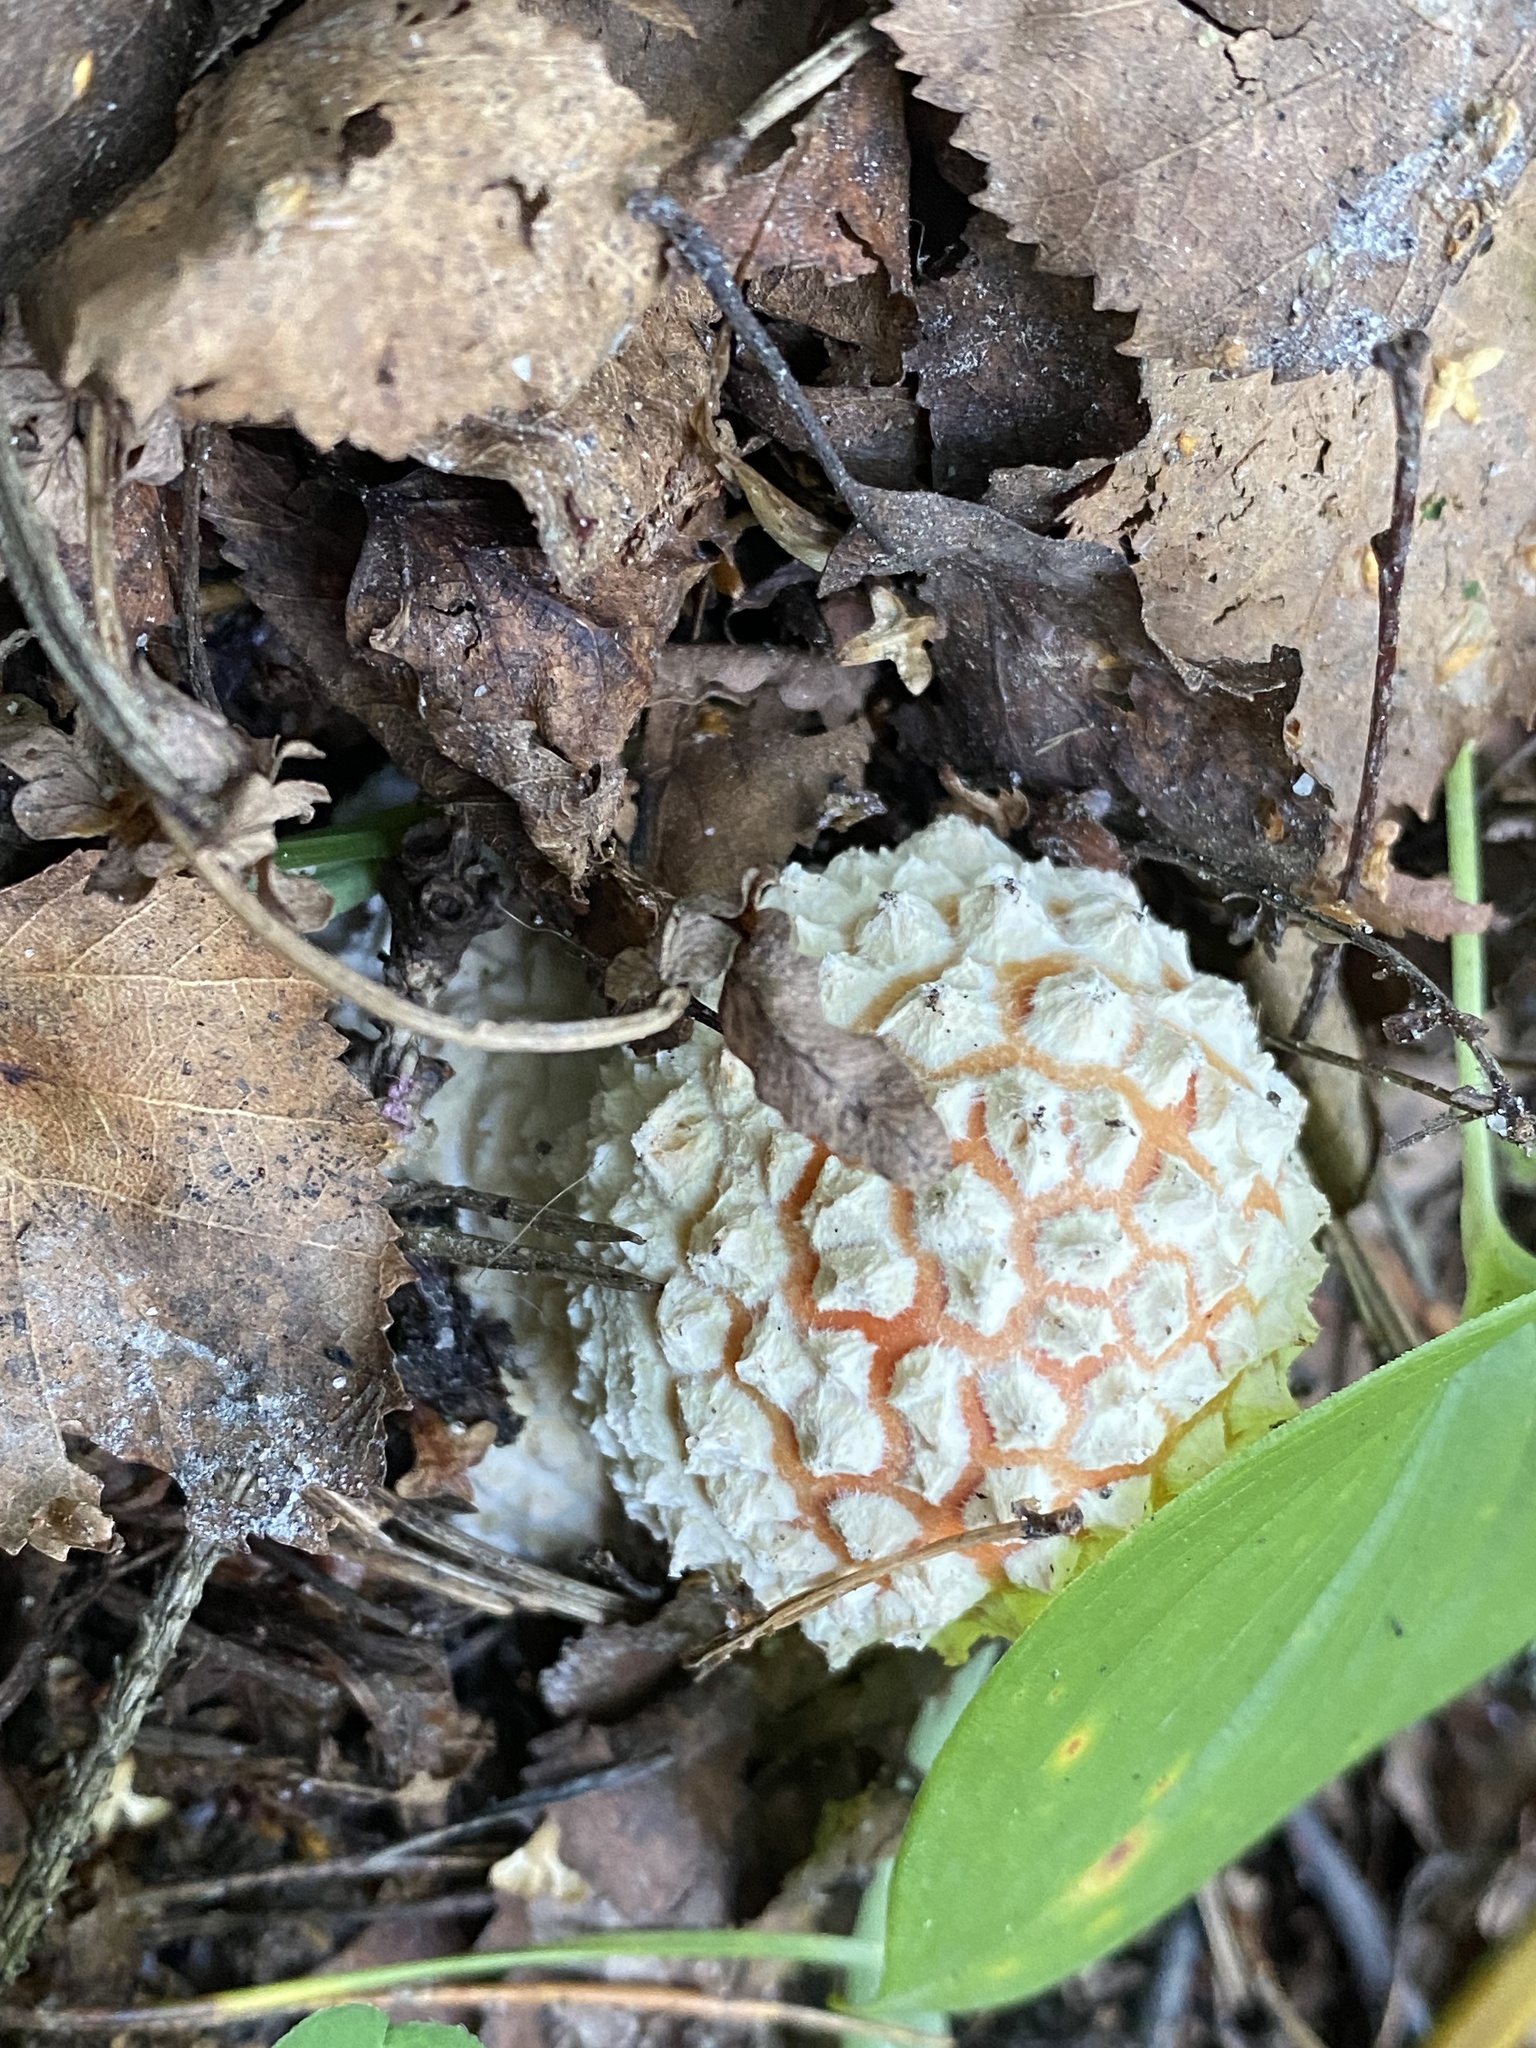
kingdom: Fungi
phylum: Basidiomycota
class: Agaricomycetes
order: Agaricales
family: Amanitaceae
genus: Amanita
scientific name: Amanita muscaria
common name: Fly agaric
